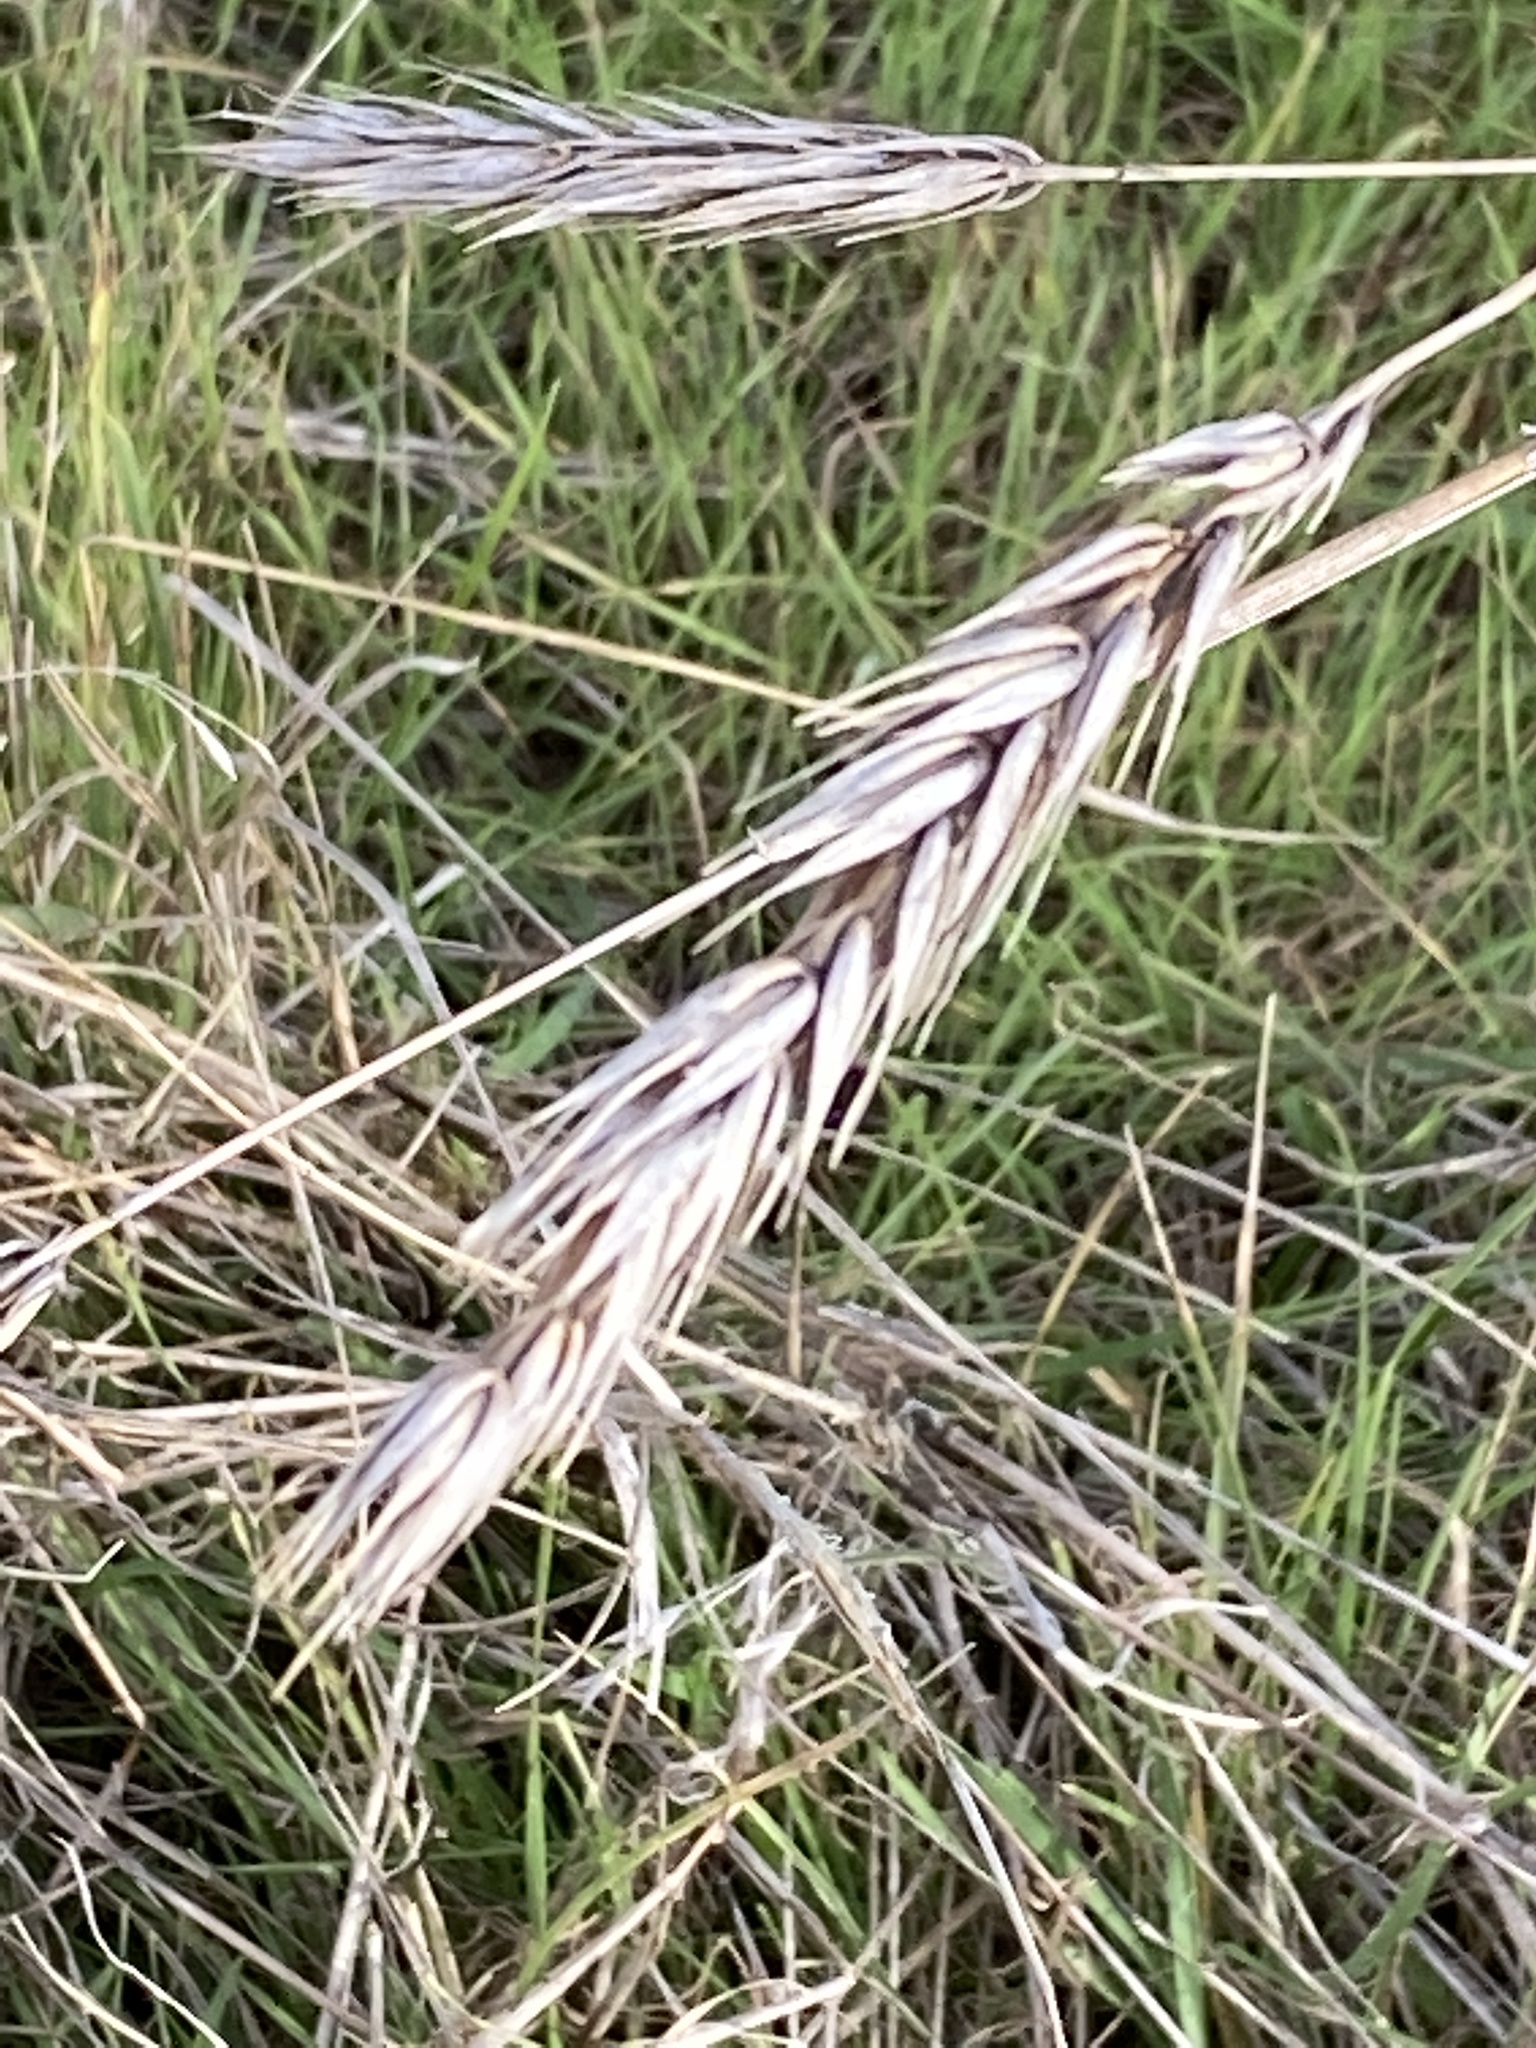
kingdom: Plantae
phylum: Tracheophyta
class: Liliopsida
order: Poales
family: Poaceae
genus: Elymus
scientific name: Elymus virginicus
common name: Common eastern wildrye
